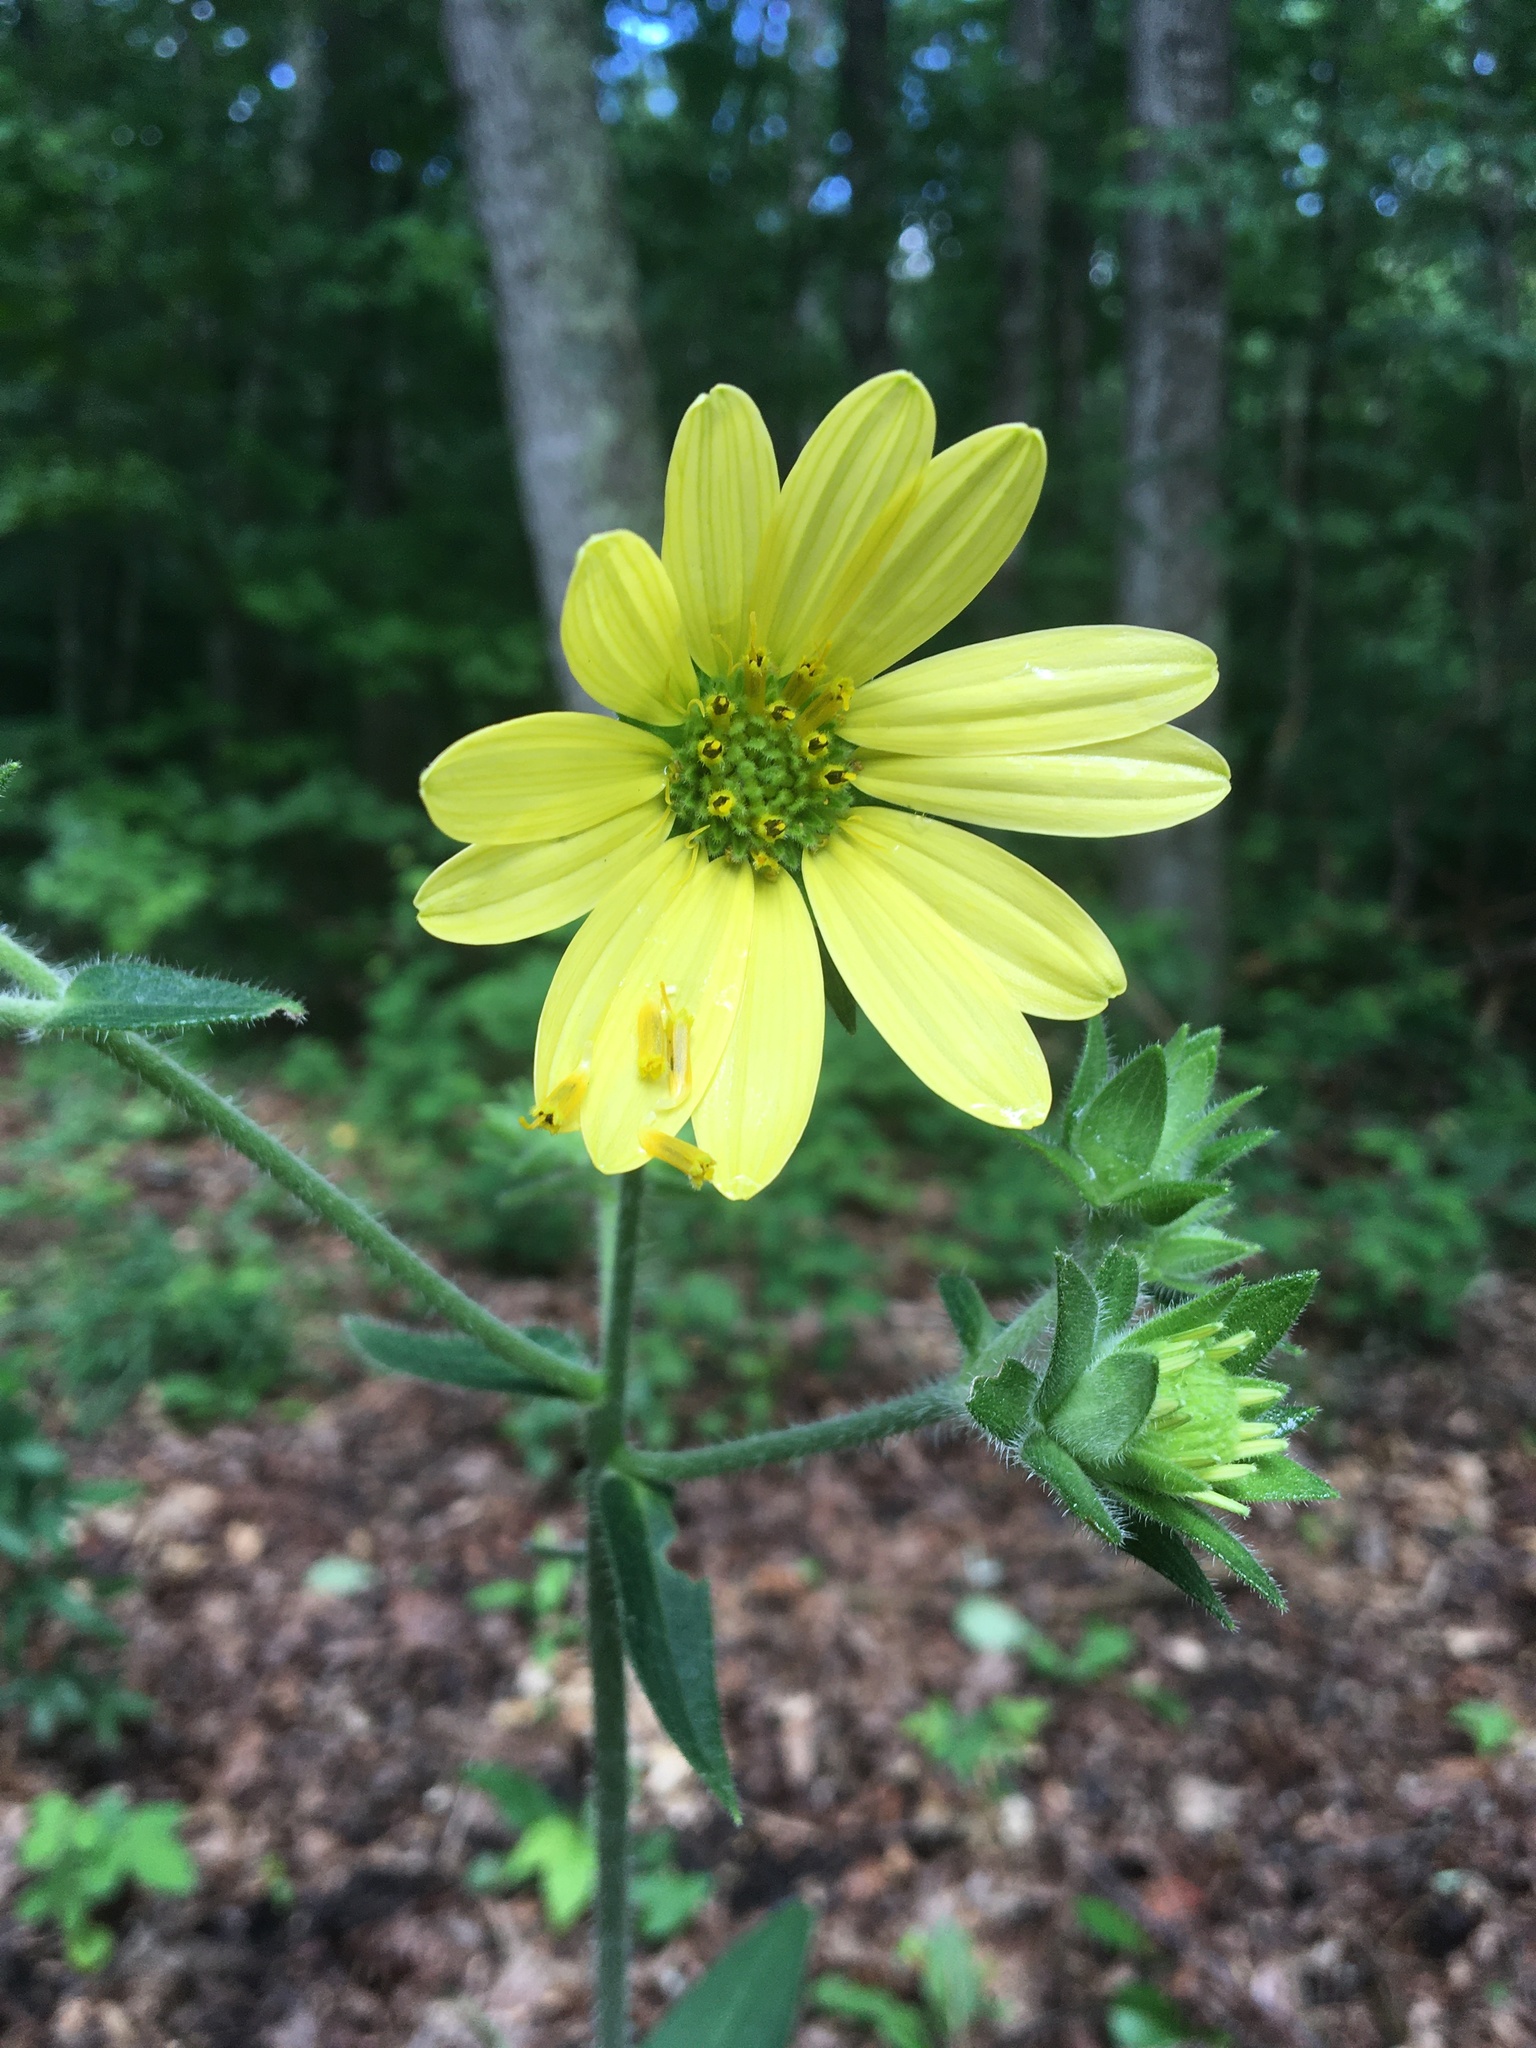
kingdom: Plantae
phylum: Tracheophyta
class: Magnoliopsida
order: Asterales
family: Asteraceae
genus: Silphium
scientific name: Silphium asteriscus
